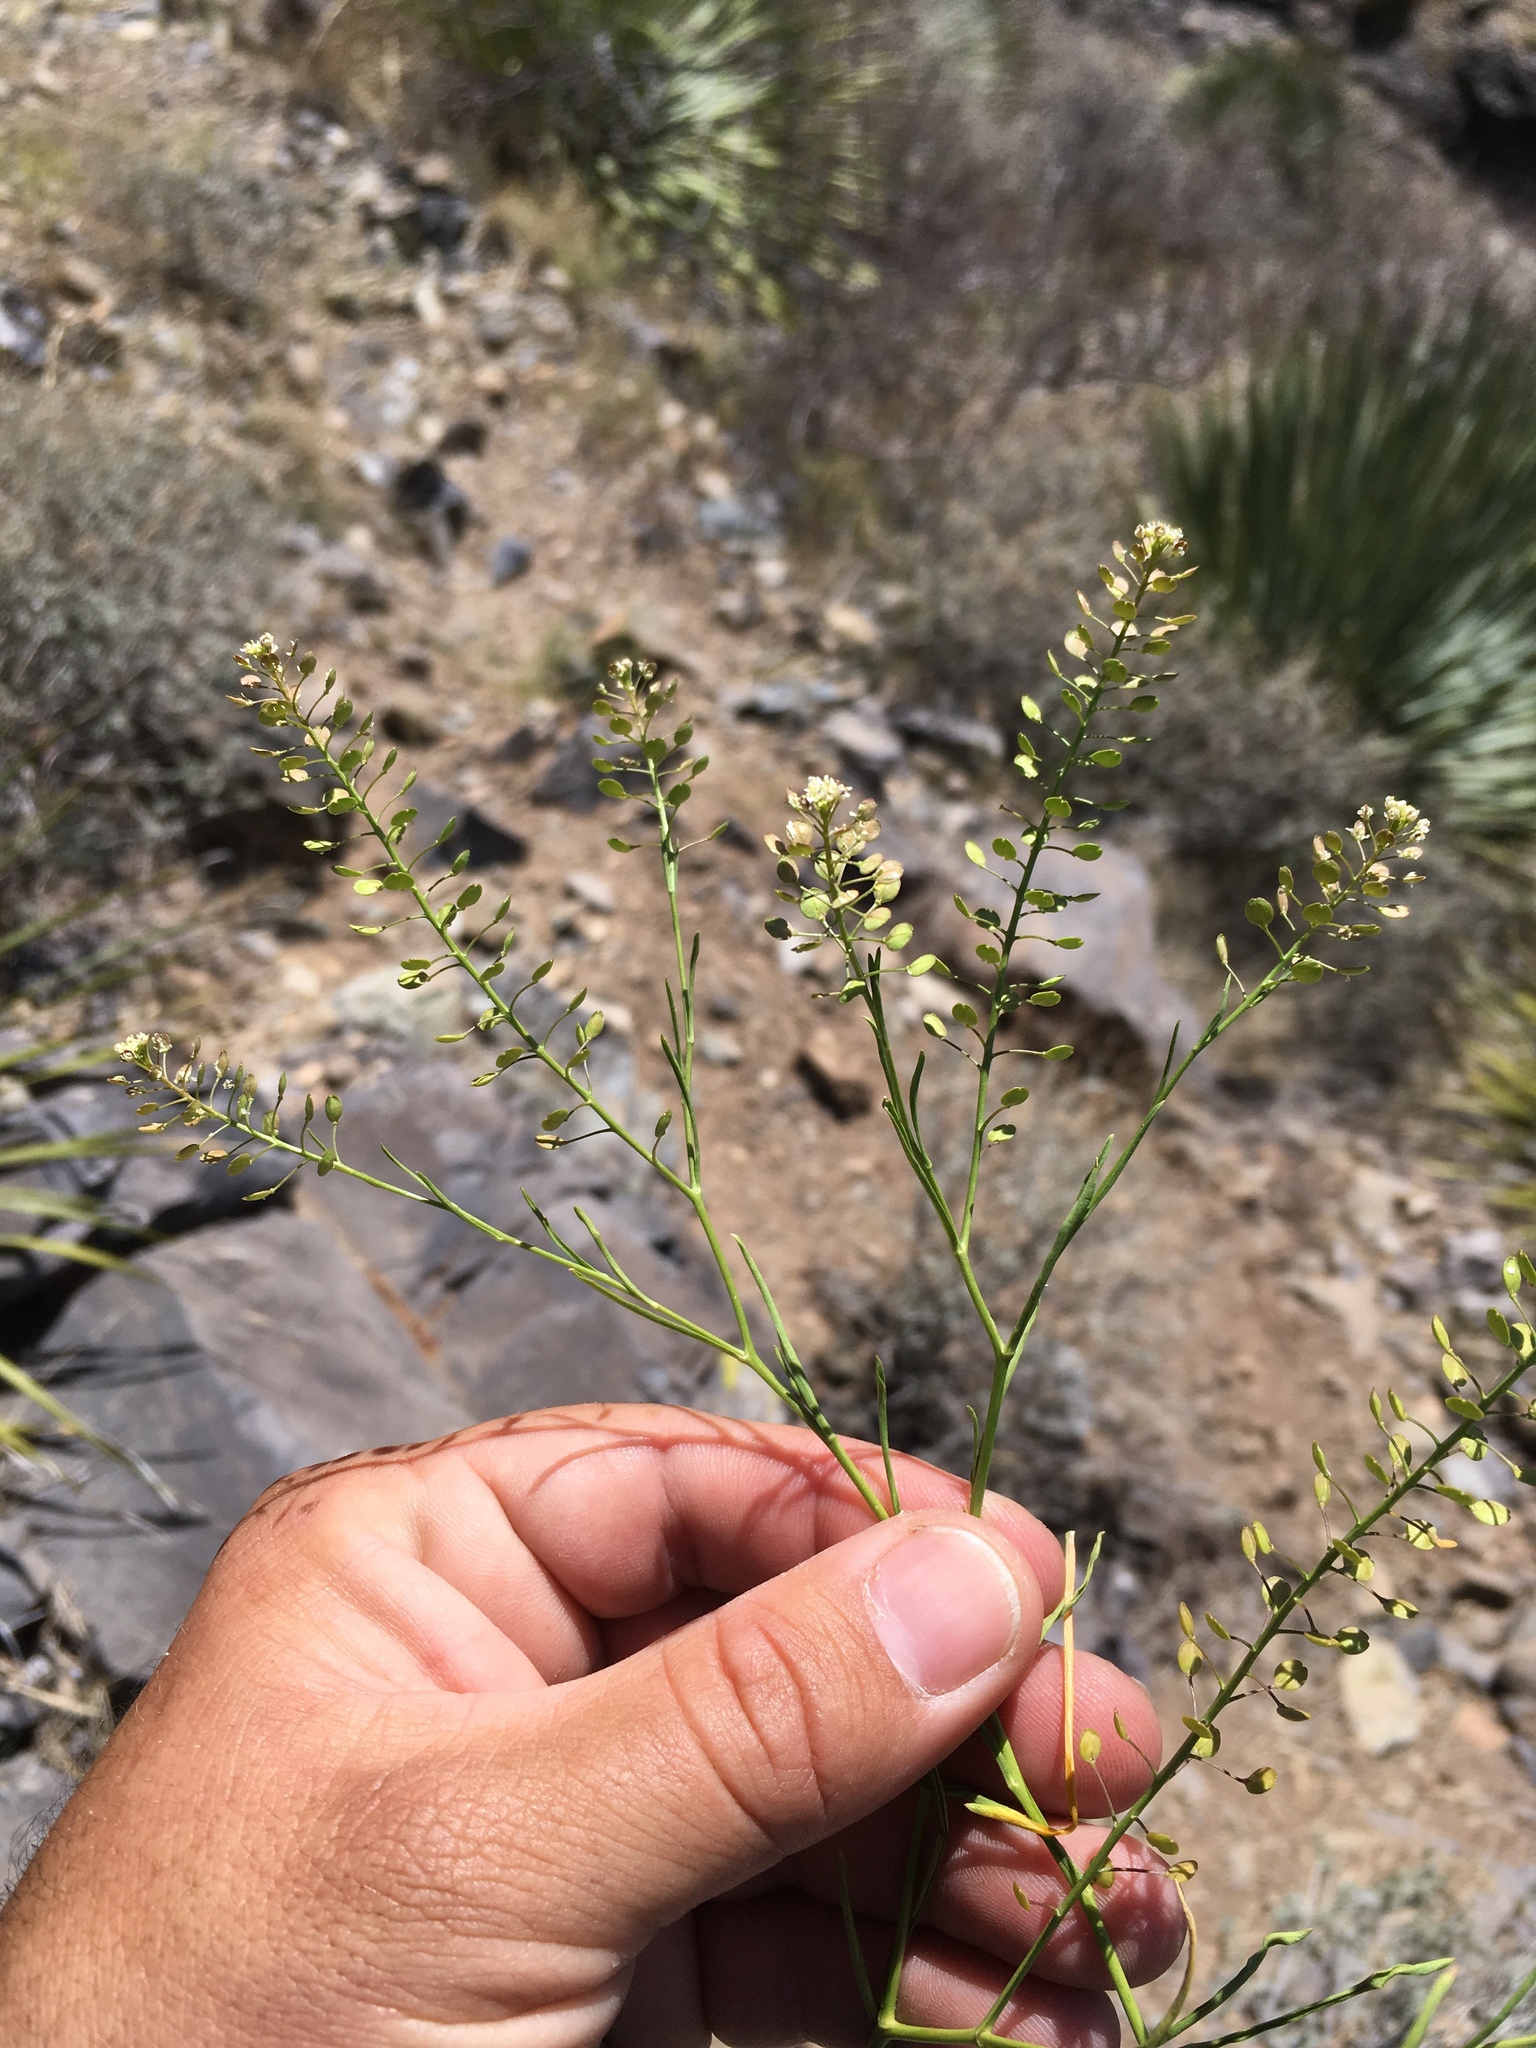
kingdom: Plantae
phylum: Tracheophyta
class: Magnoliopsida
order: Brassicales
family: Brassicaceae
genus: Lepidium
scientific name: Lepidium virginicum
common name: Least pepperwort
